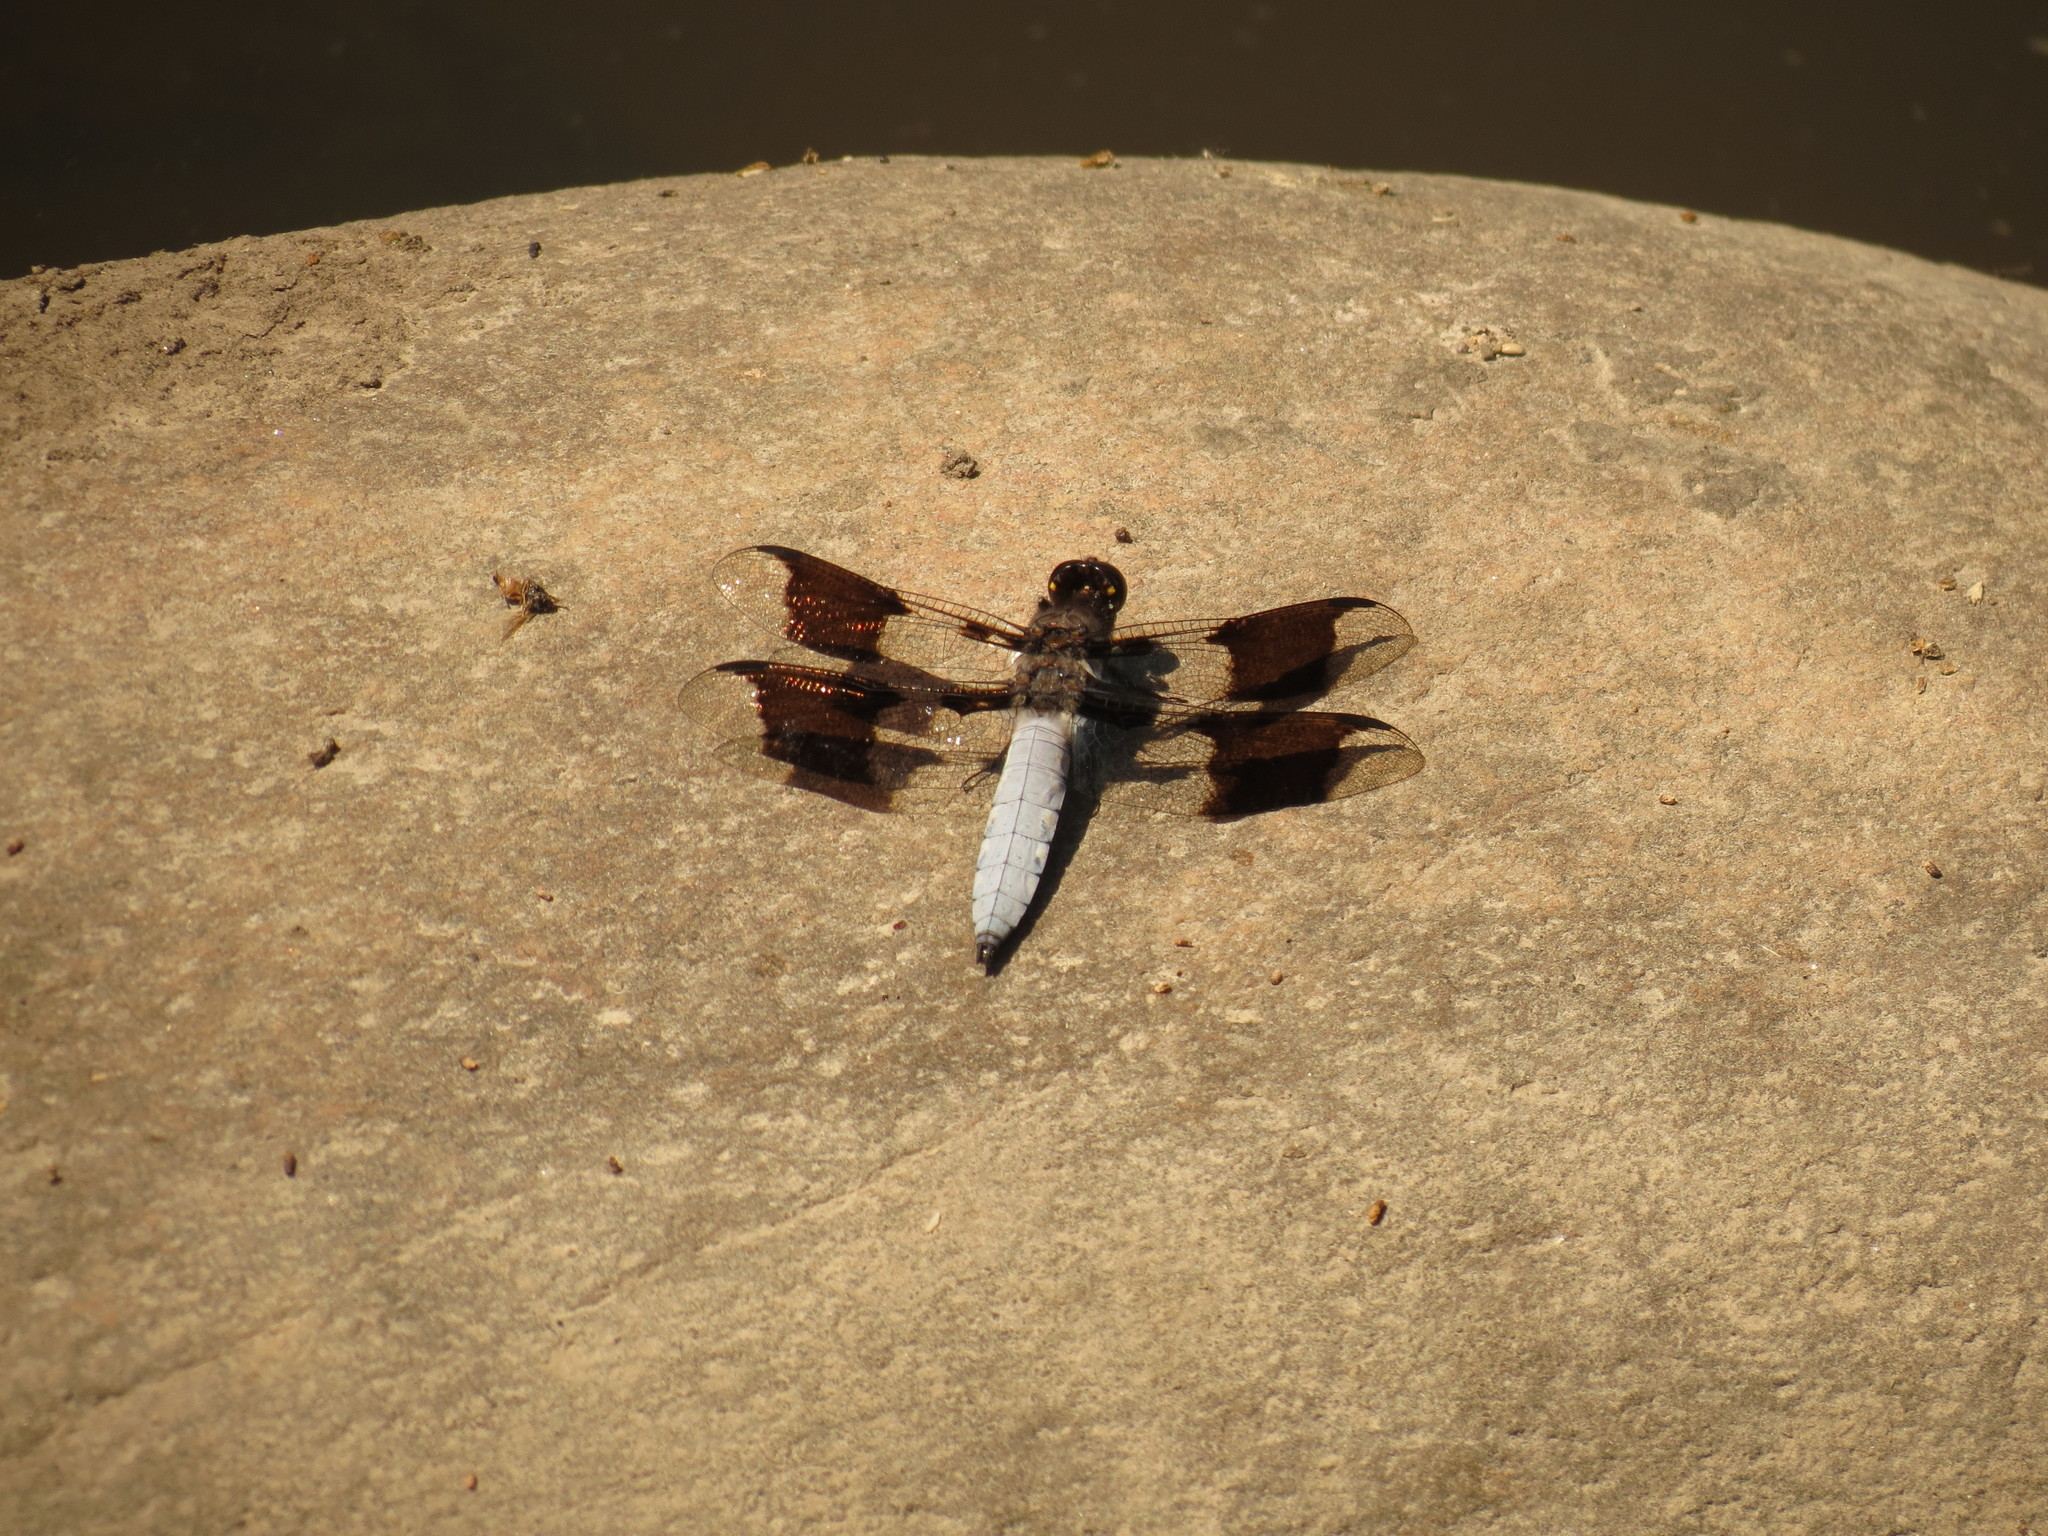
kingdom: Animalia
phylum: Arthropoda
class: Insecta
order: Odonata
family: Libellulidae
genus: Plathemis
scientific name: Plathemis lydia
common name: Common whitetail
